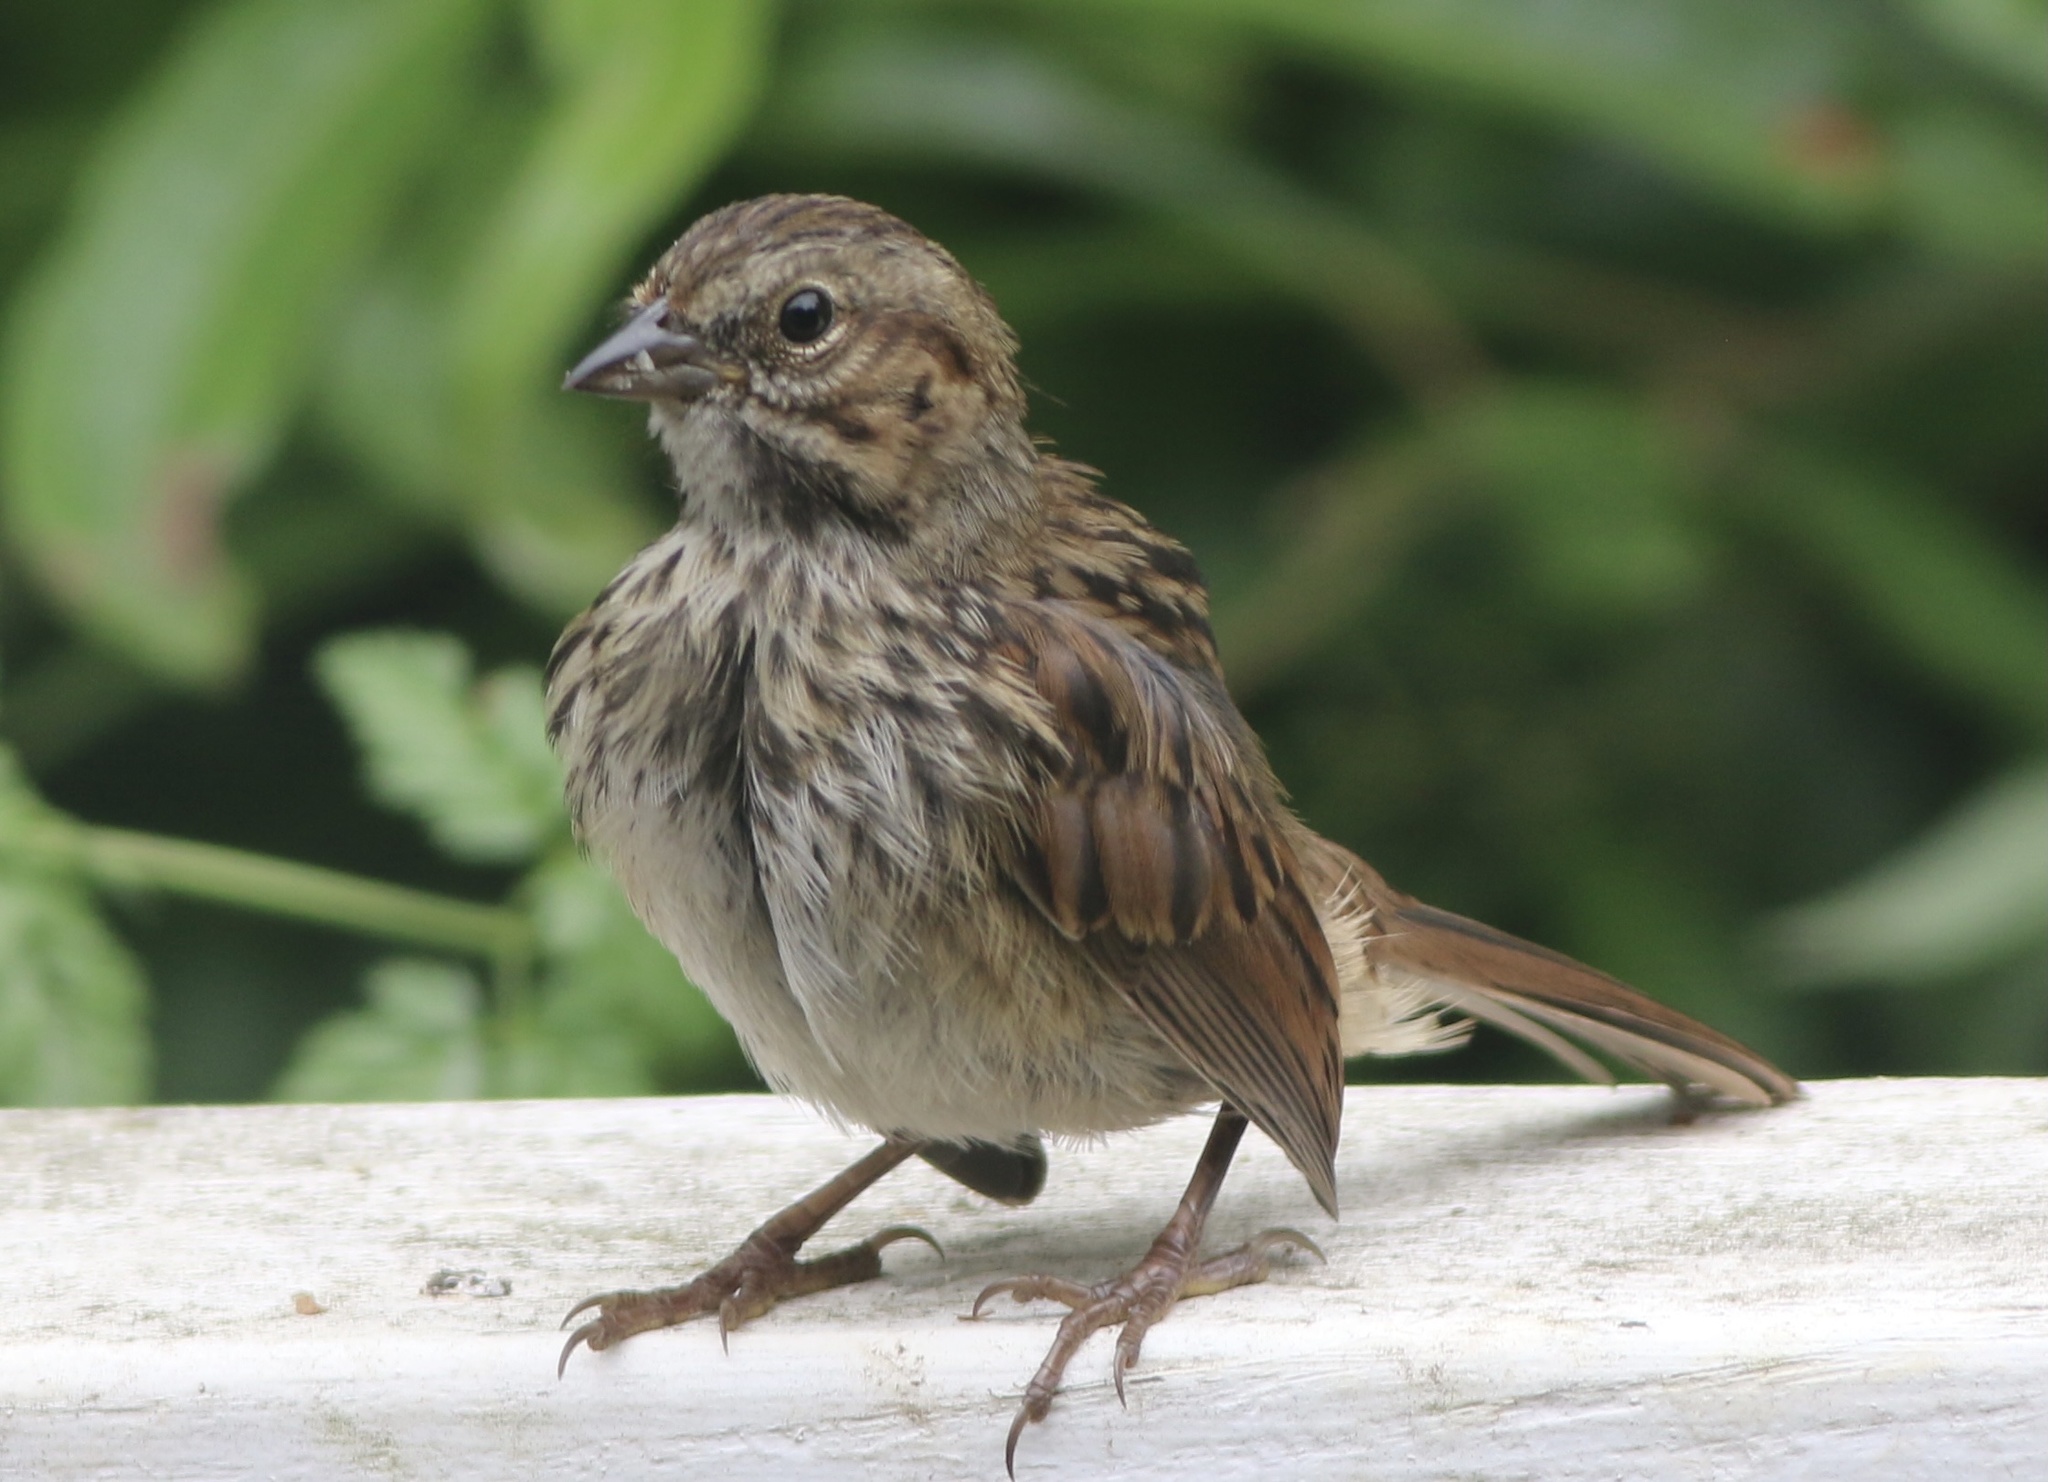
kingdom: Animalia
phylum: Chordata
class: Aves
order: Passeriformes
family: Passerellidae
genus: Melospiza
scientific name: Melospiza melodia
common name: Song sparrow
